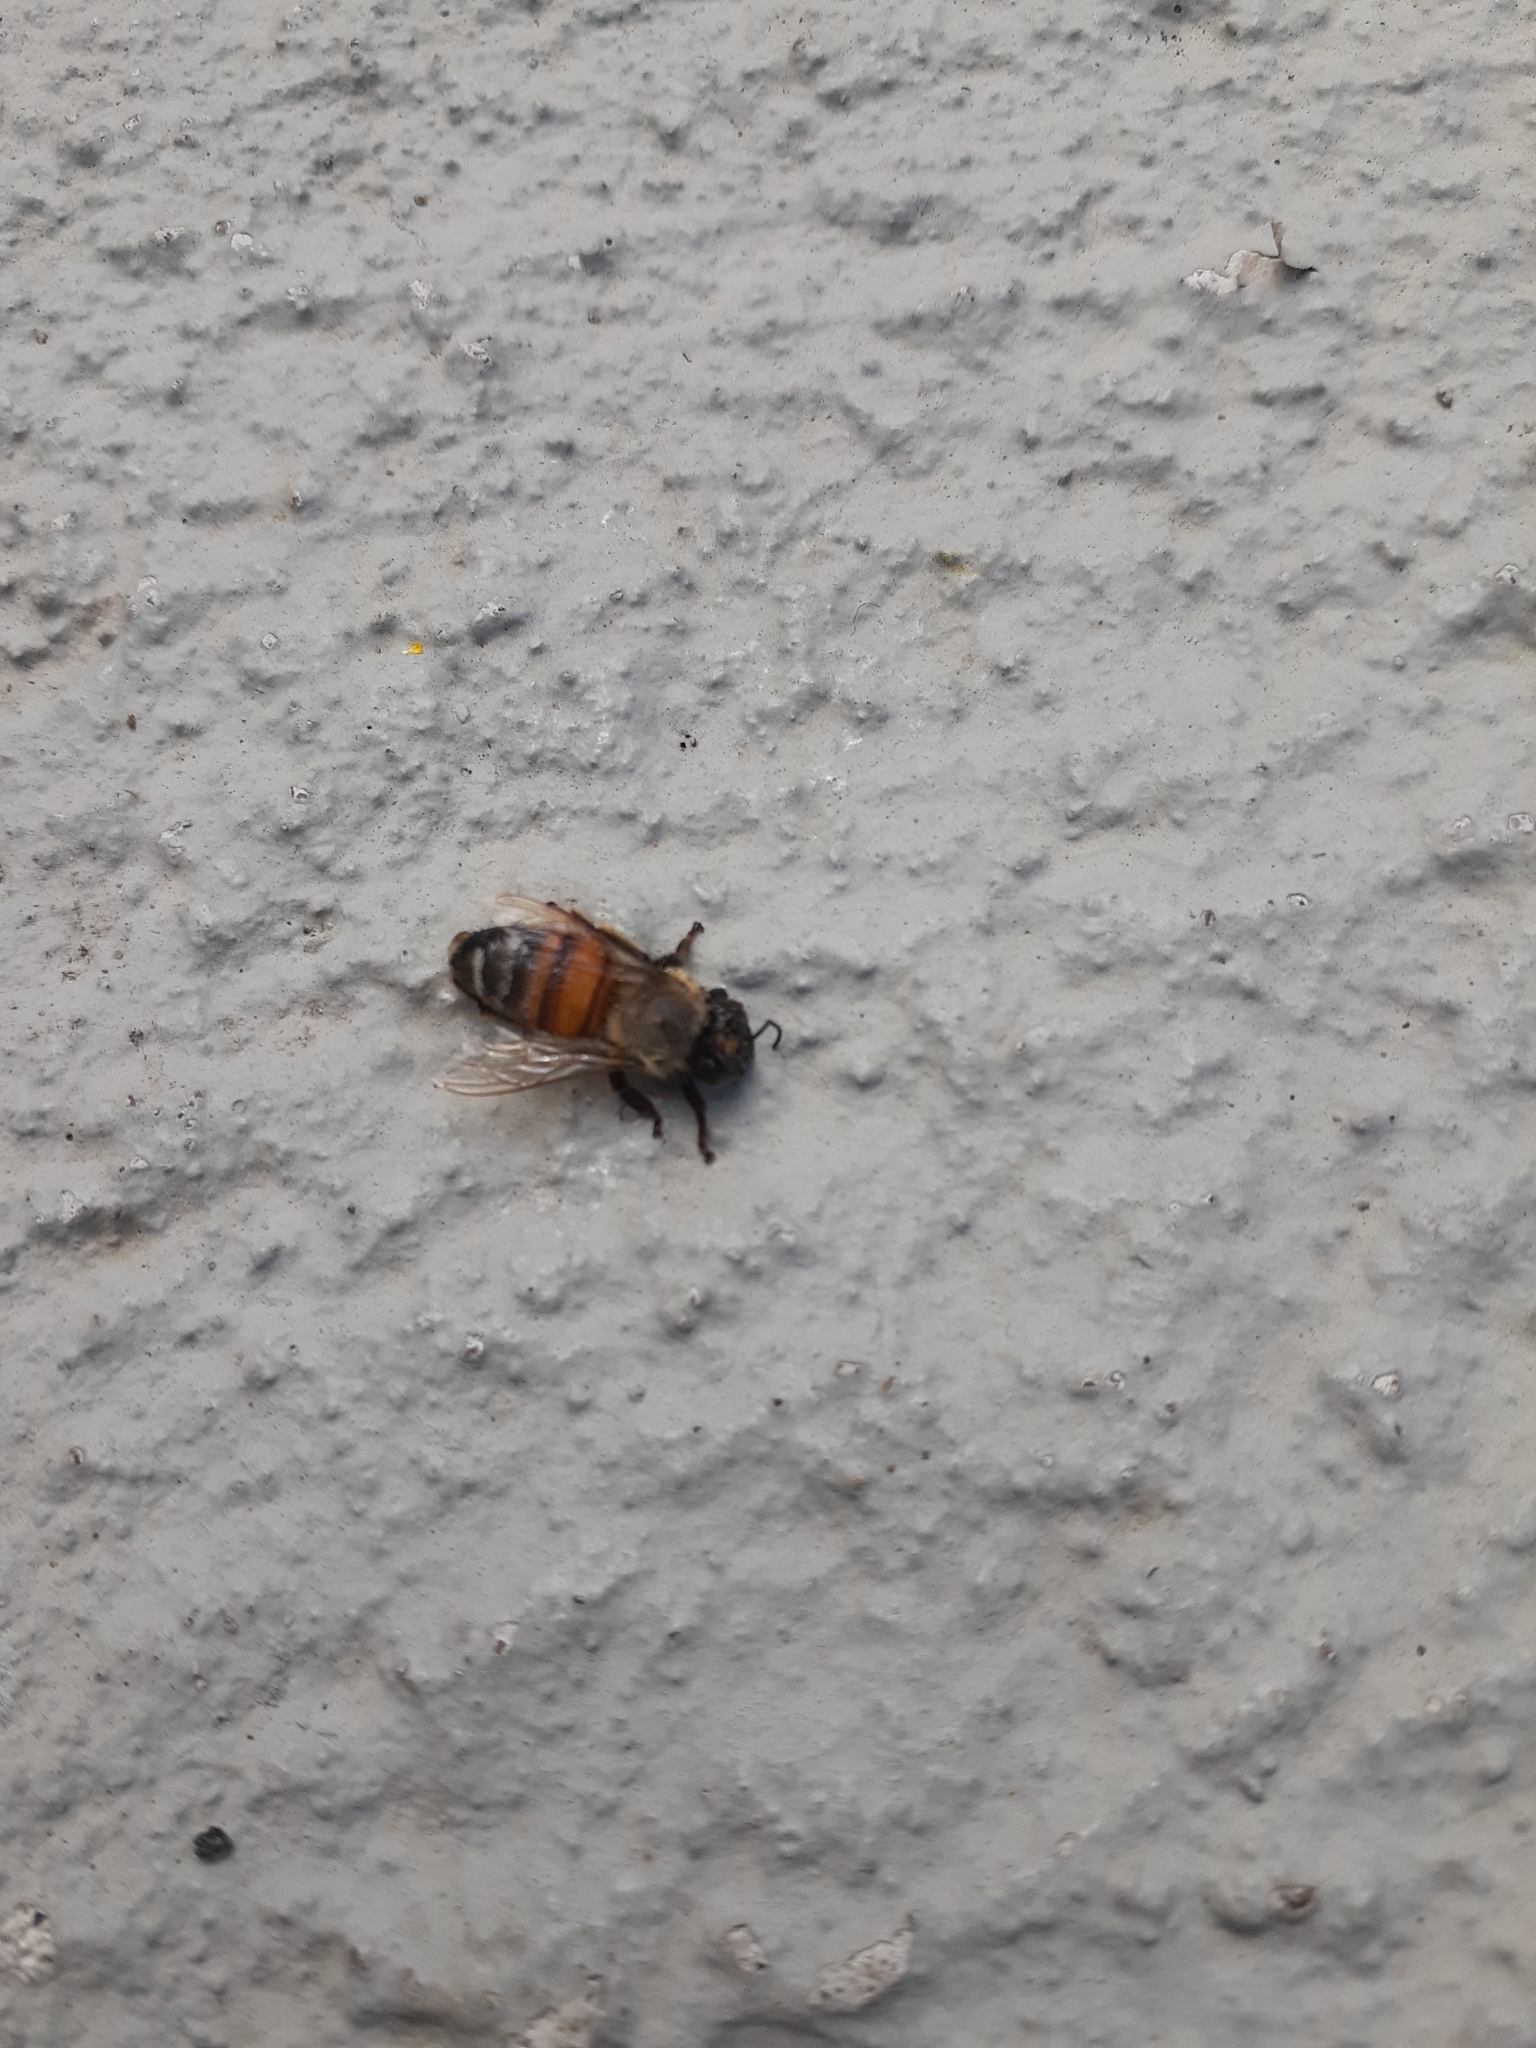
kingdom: Animalia
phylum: Arthropoda
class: Insecta
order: Hymenoptera
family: Apidae
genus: Apis
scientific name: Apis mellifera
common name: Honey bee
